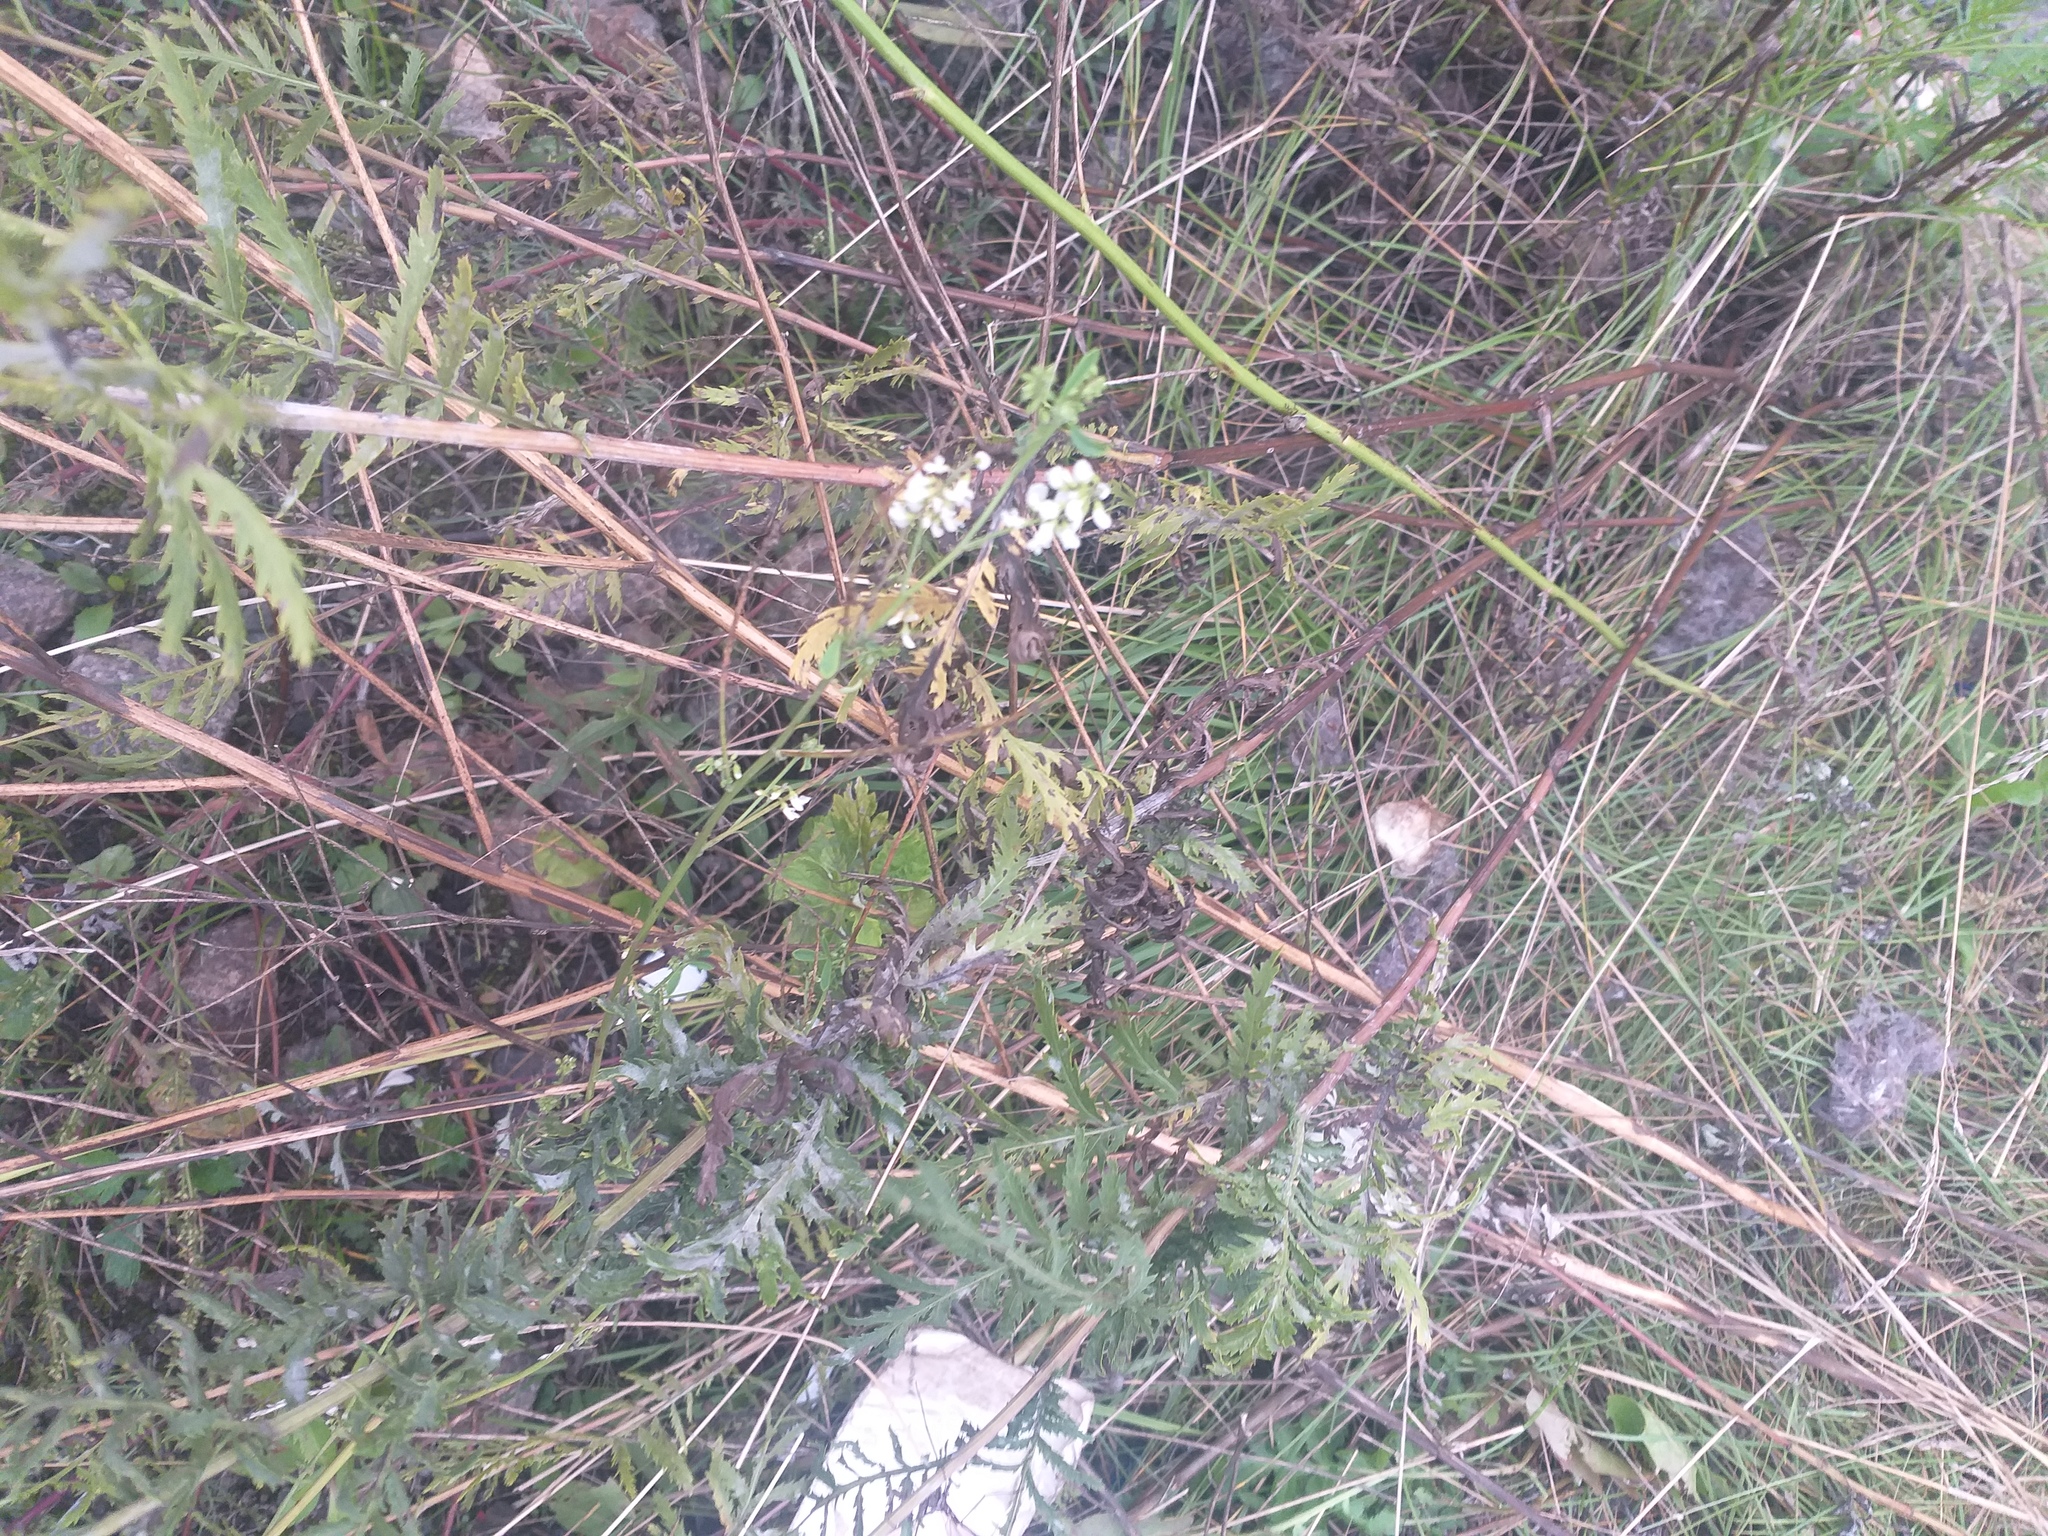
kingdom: Plantae
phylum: Tracheophyta
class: Magnoliopsida
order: Fabales
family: Fabaceae
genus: Melilotus
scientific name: Melilotus albus
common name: White melilot
